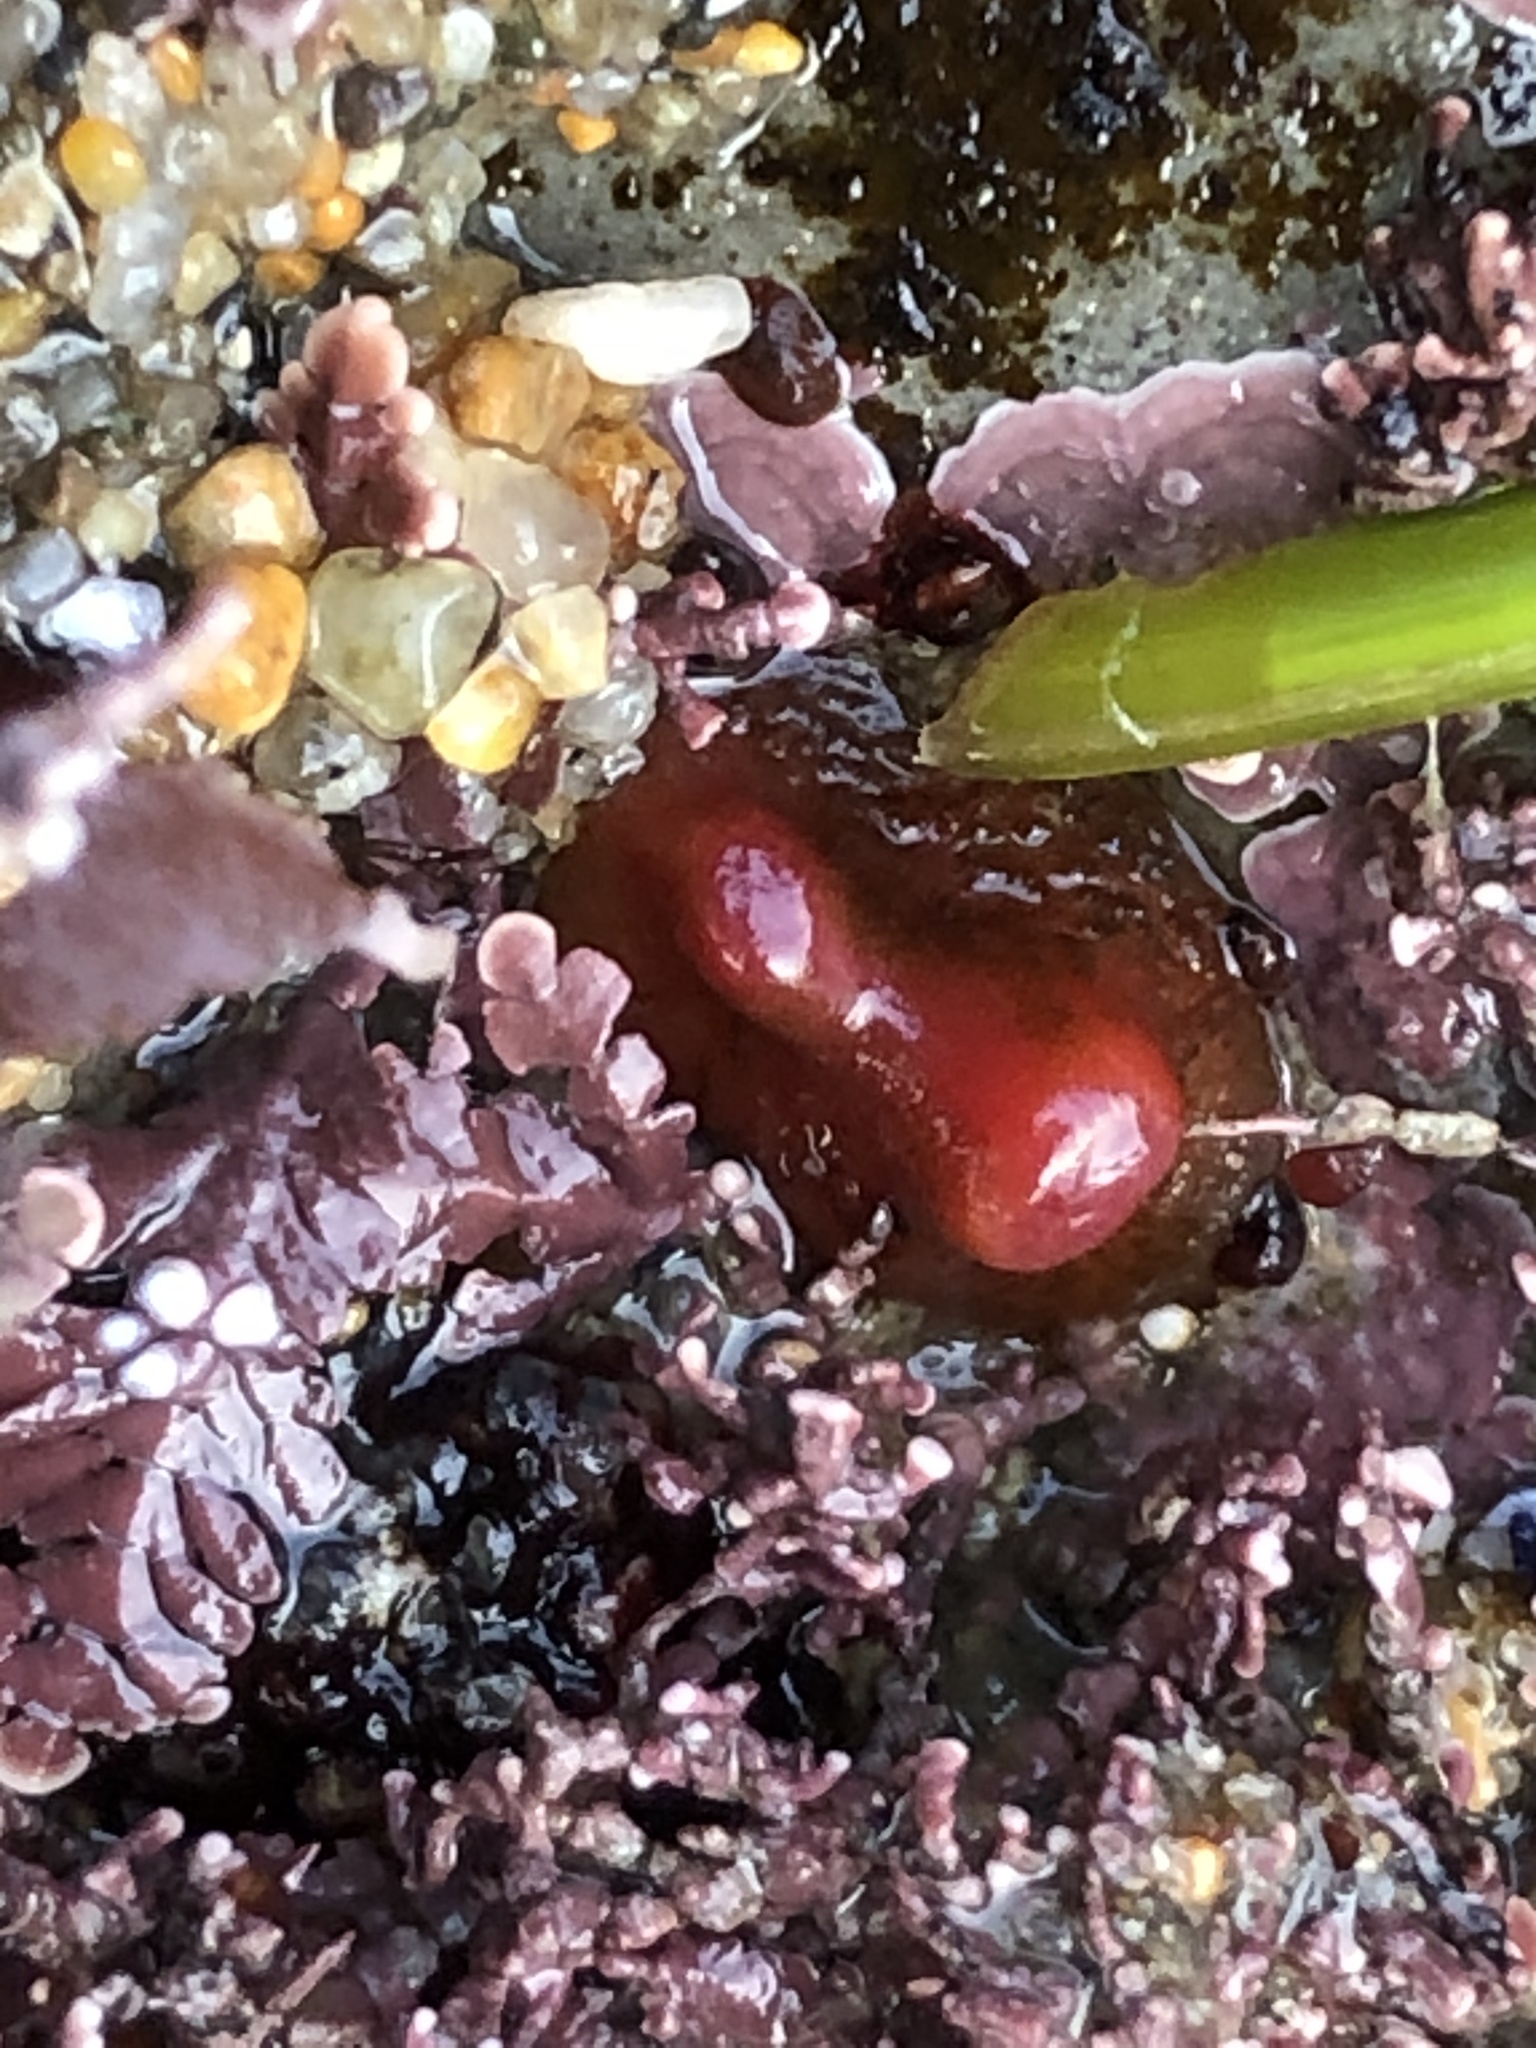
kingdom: Animalia
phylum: Mollusca
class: Bivalvia
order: Adapedonta
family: Hiatellidae
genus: Hiatella
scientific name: Hiatella arctica
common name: Arctic hiatella
